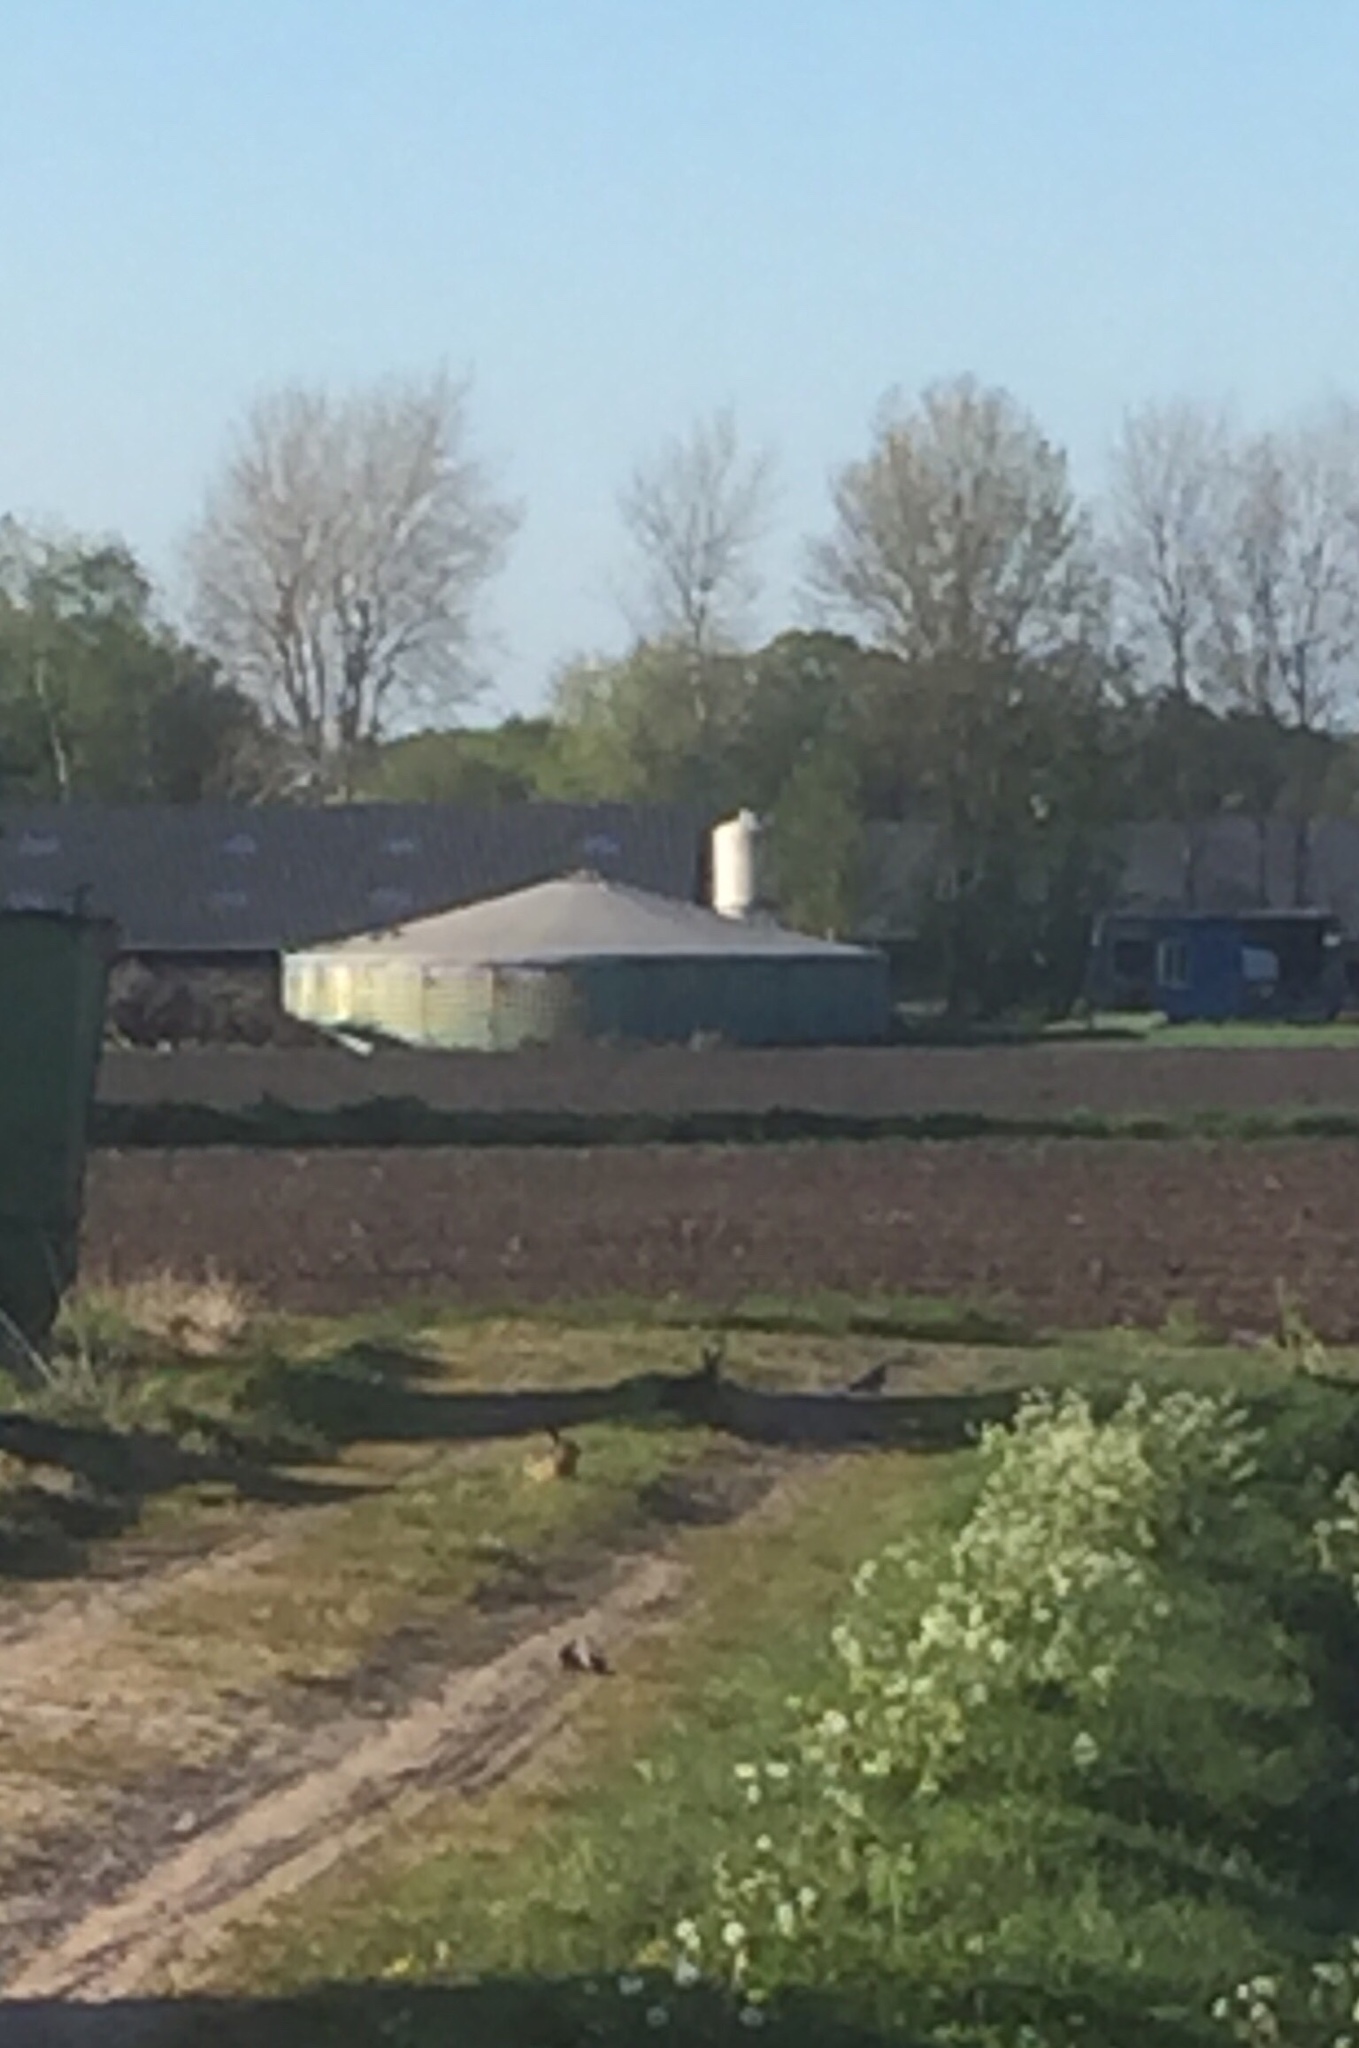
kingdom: Animalia
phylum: Chordata
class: Mammalia
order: Lagomorpha
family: Leporidae
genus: Lepus
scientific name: Lepus europaeus
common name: European hare
